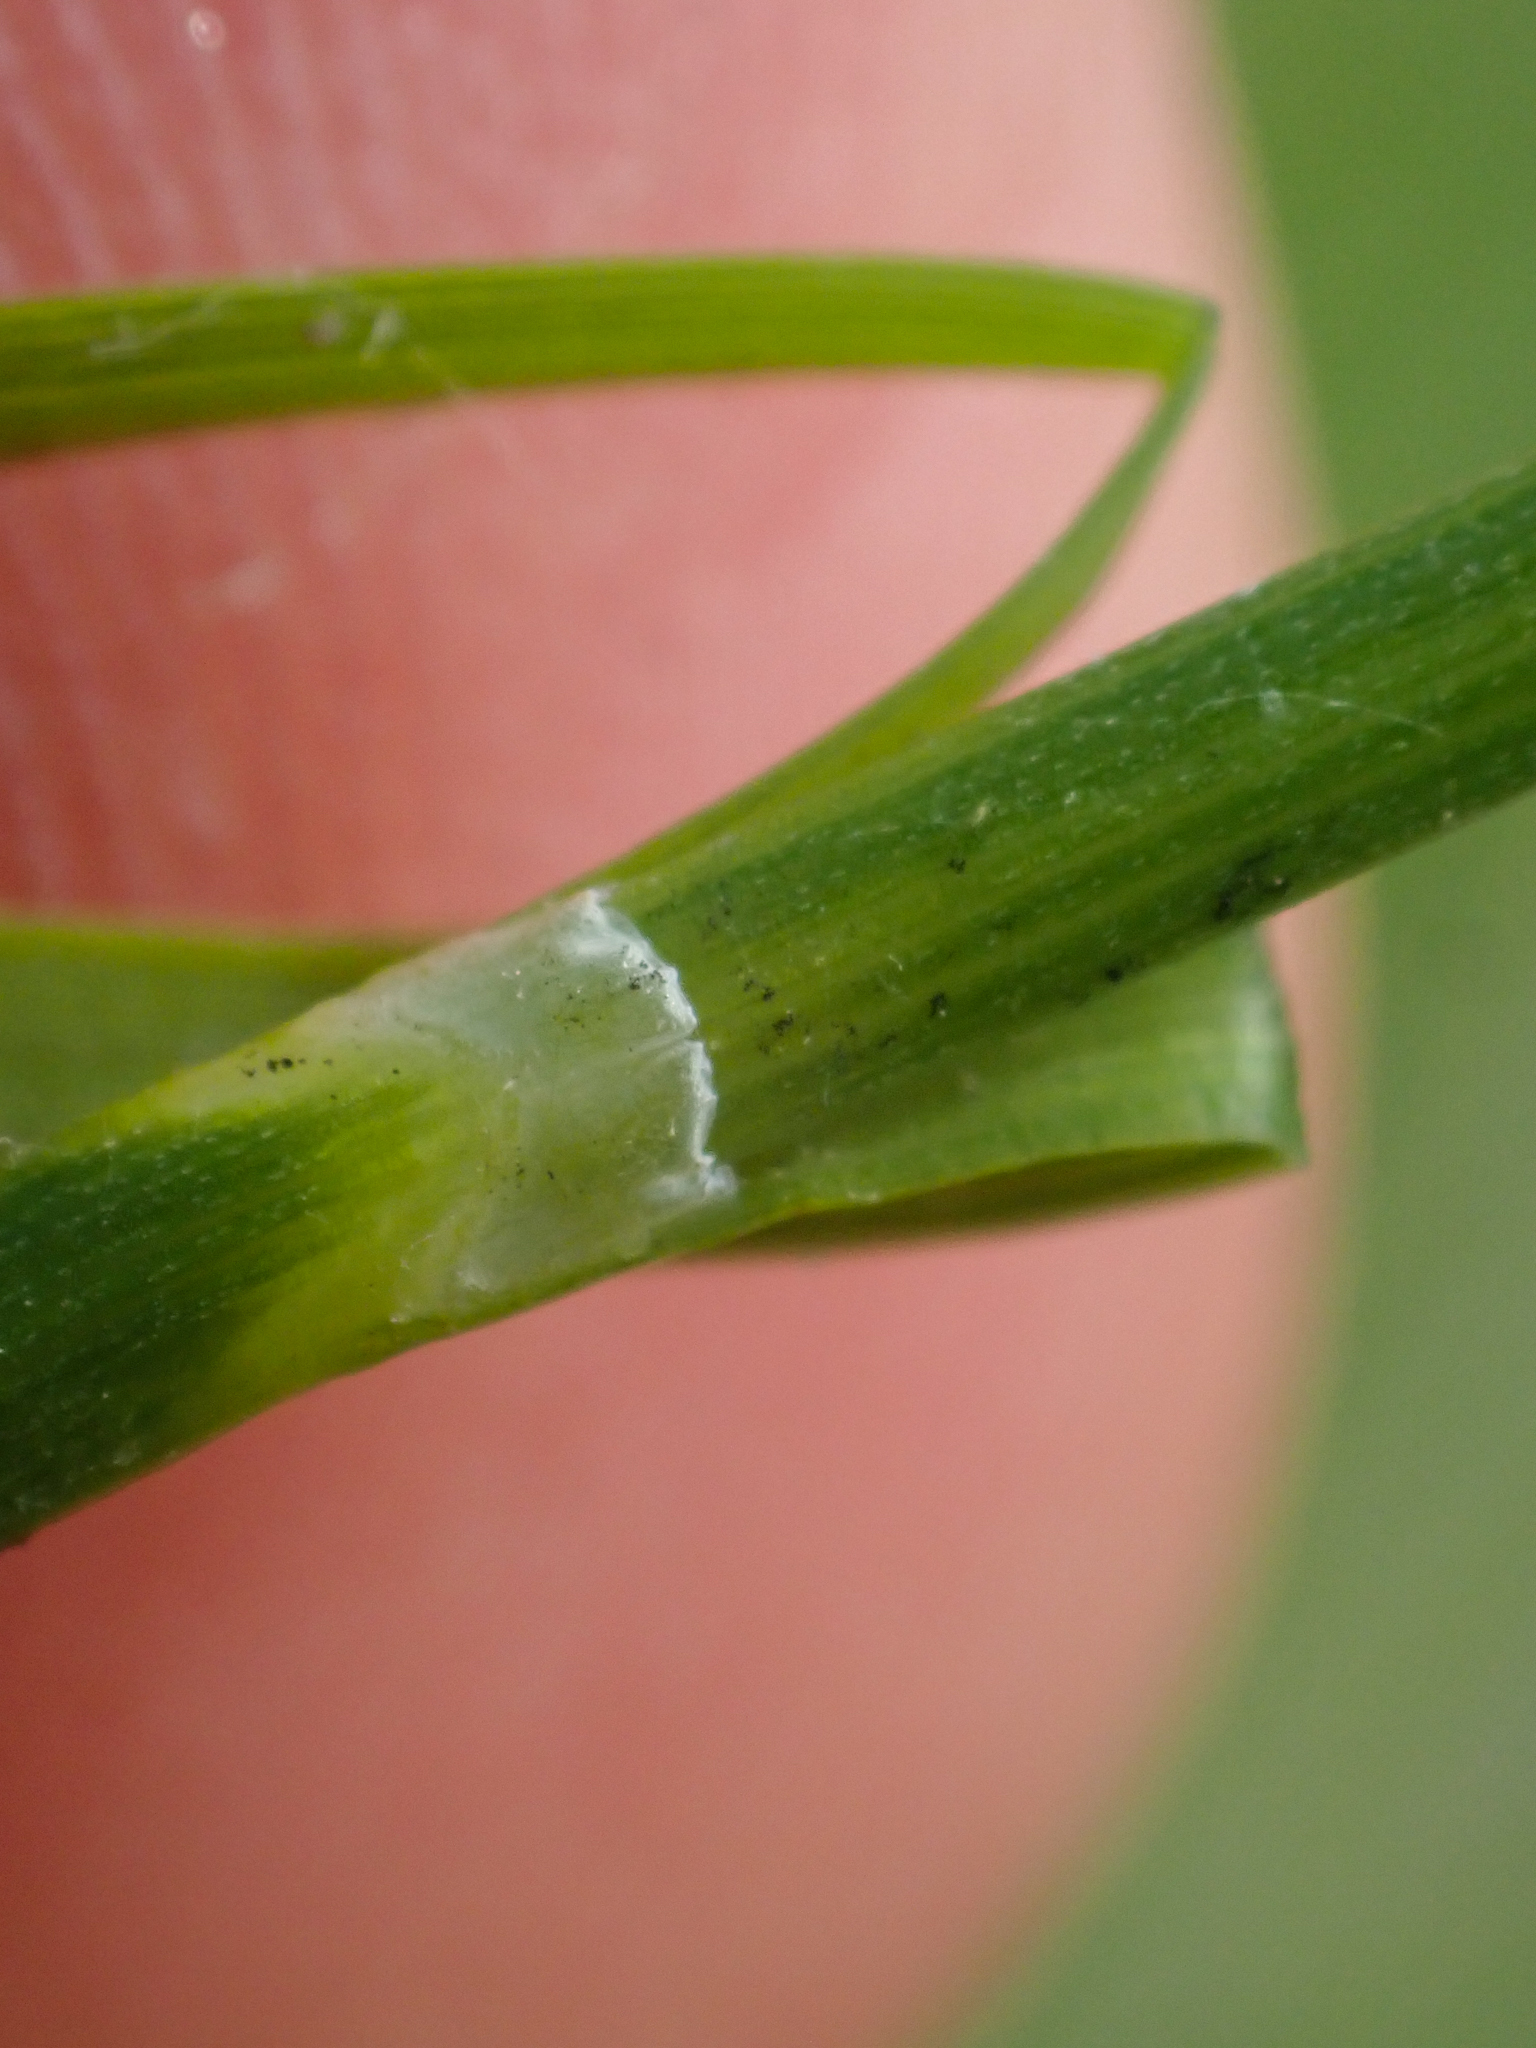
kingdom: Plantae
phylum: Tracheophyta
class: Liliopsida
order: Poales
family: Cyperaceae
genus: Carex
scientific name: Carex kelloggii
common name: Kellogg's sedge
